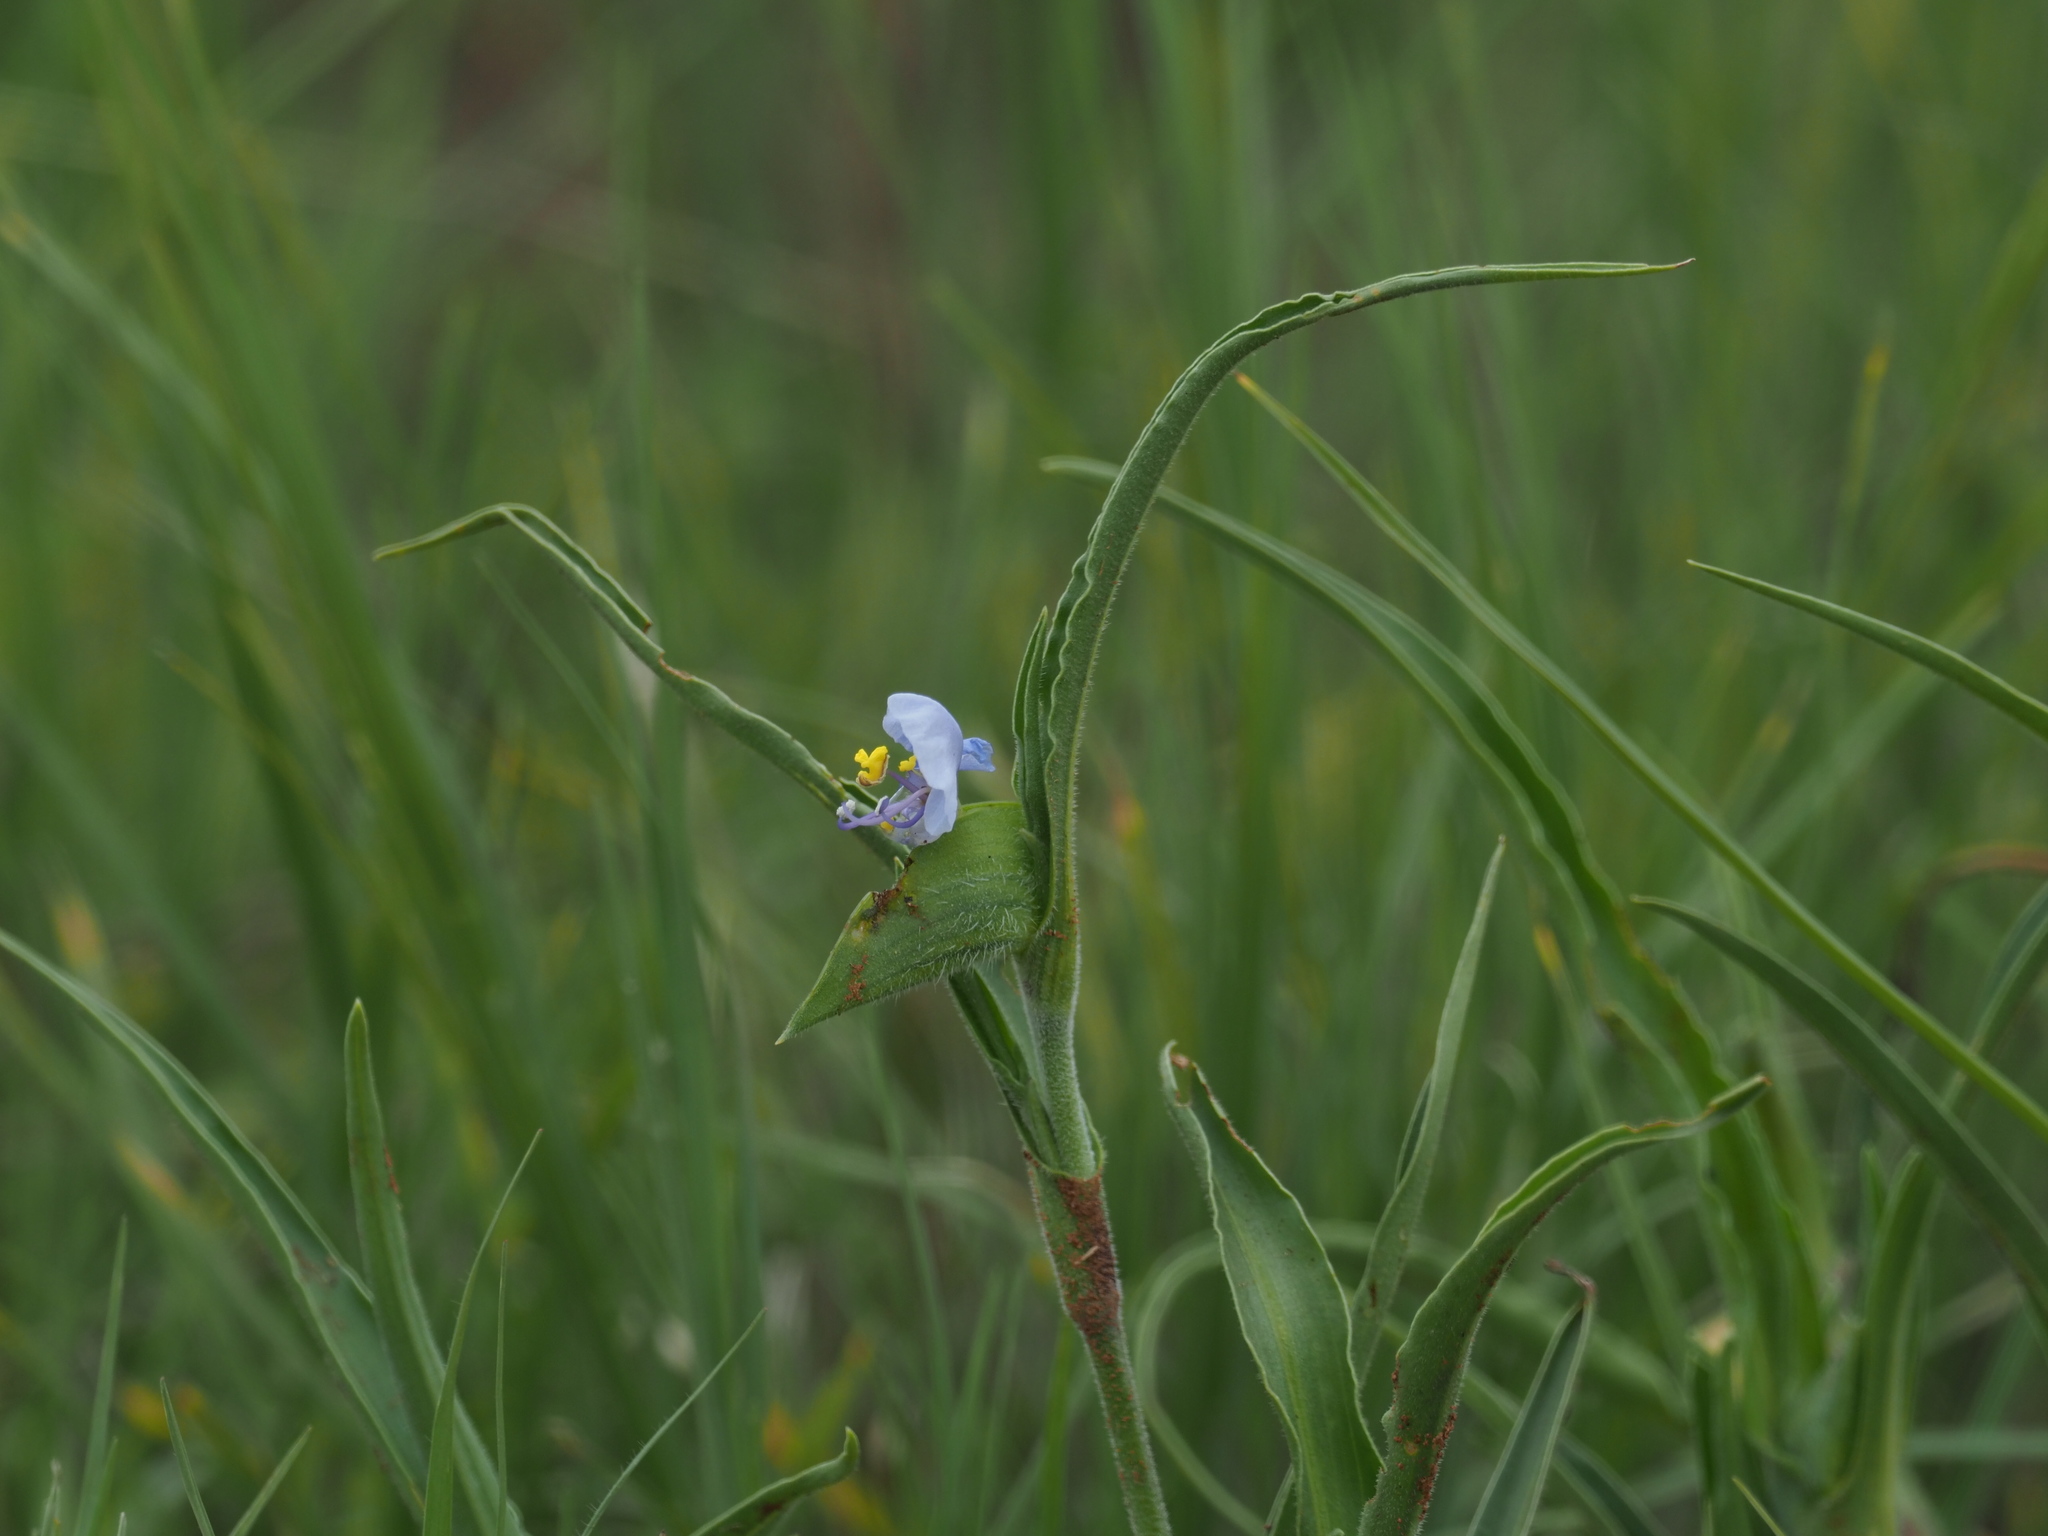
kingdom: Plantae
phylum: Tracheophyta
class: Liliopsida
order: Commelinales
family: Commelinaceae
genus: Commelina
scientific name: Commelina erecta
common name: Blousel blommetjie
